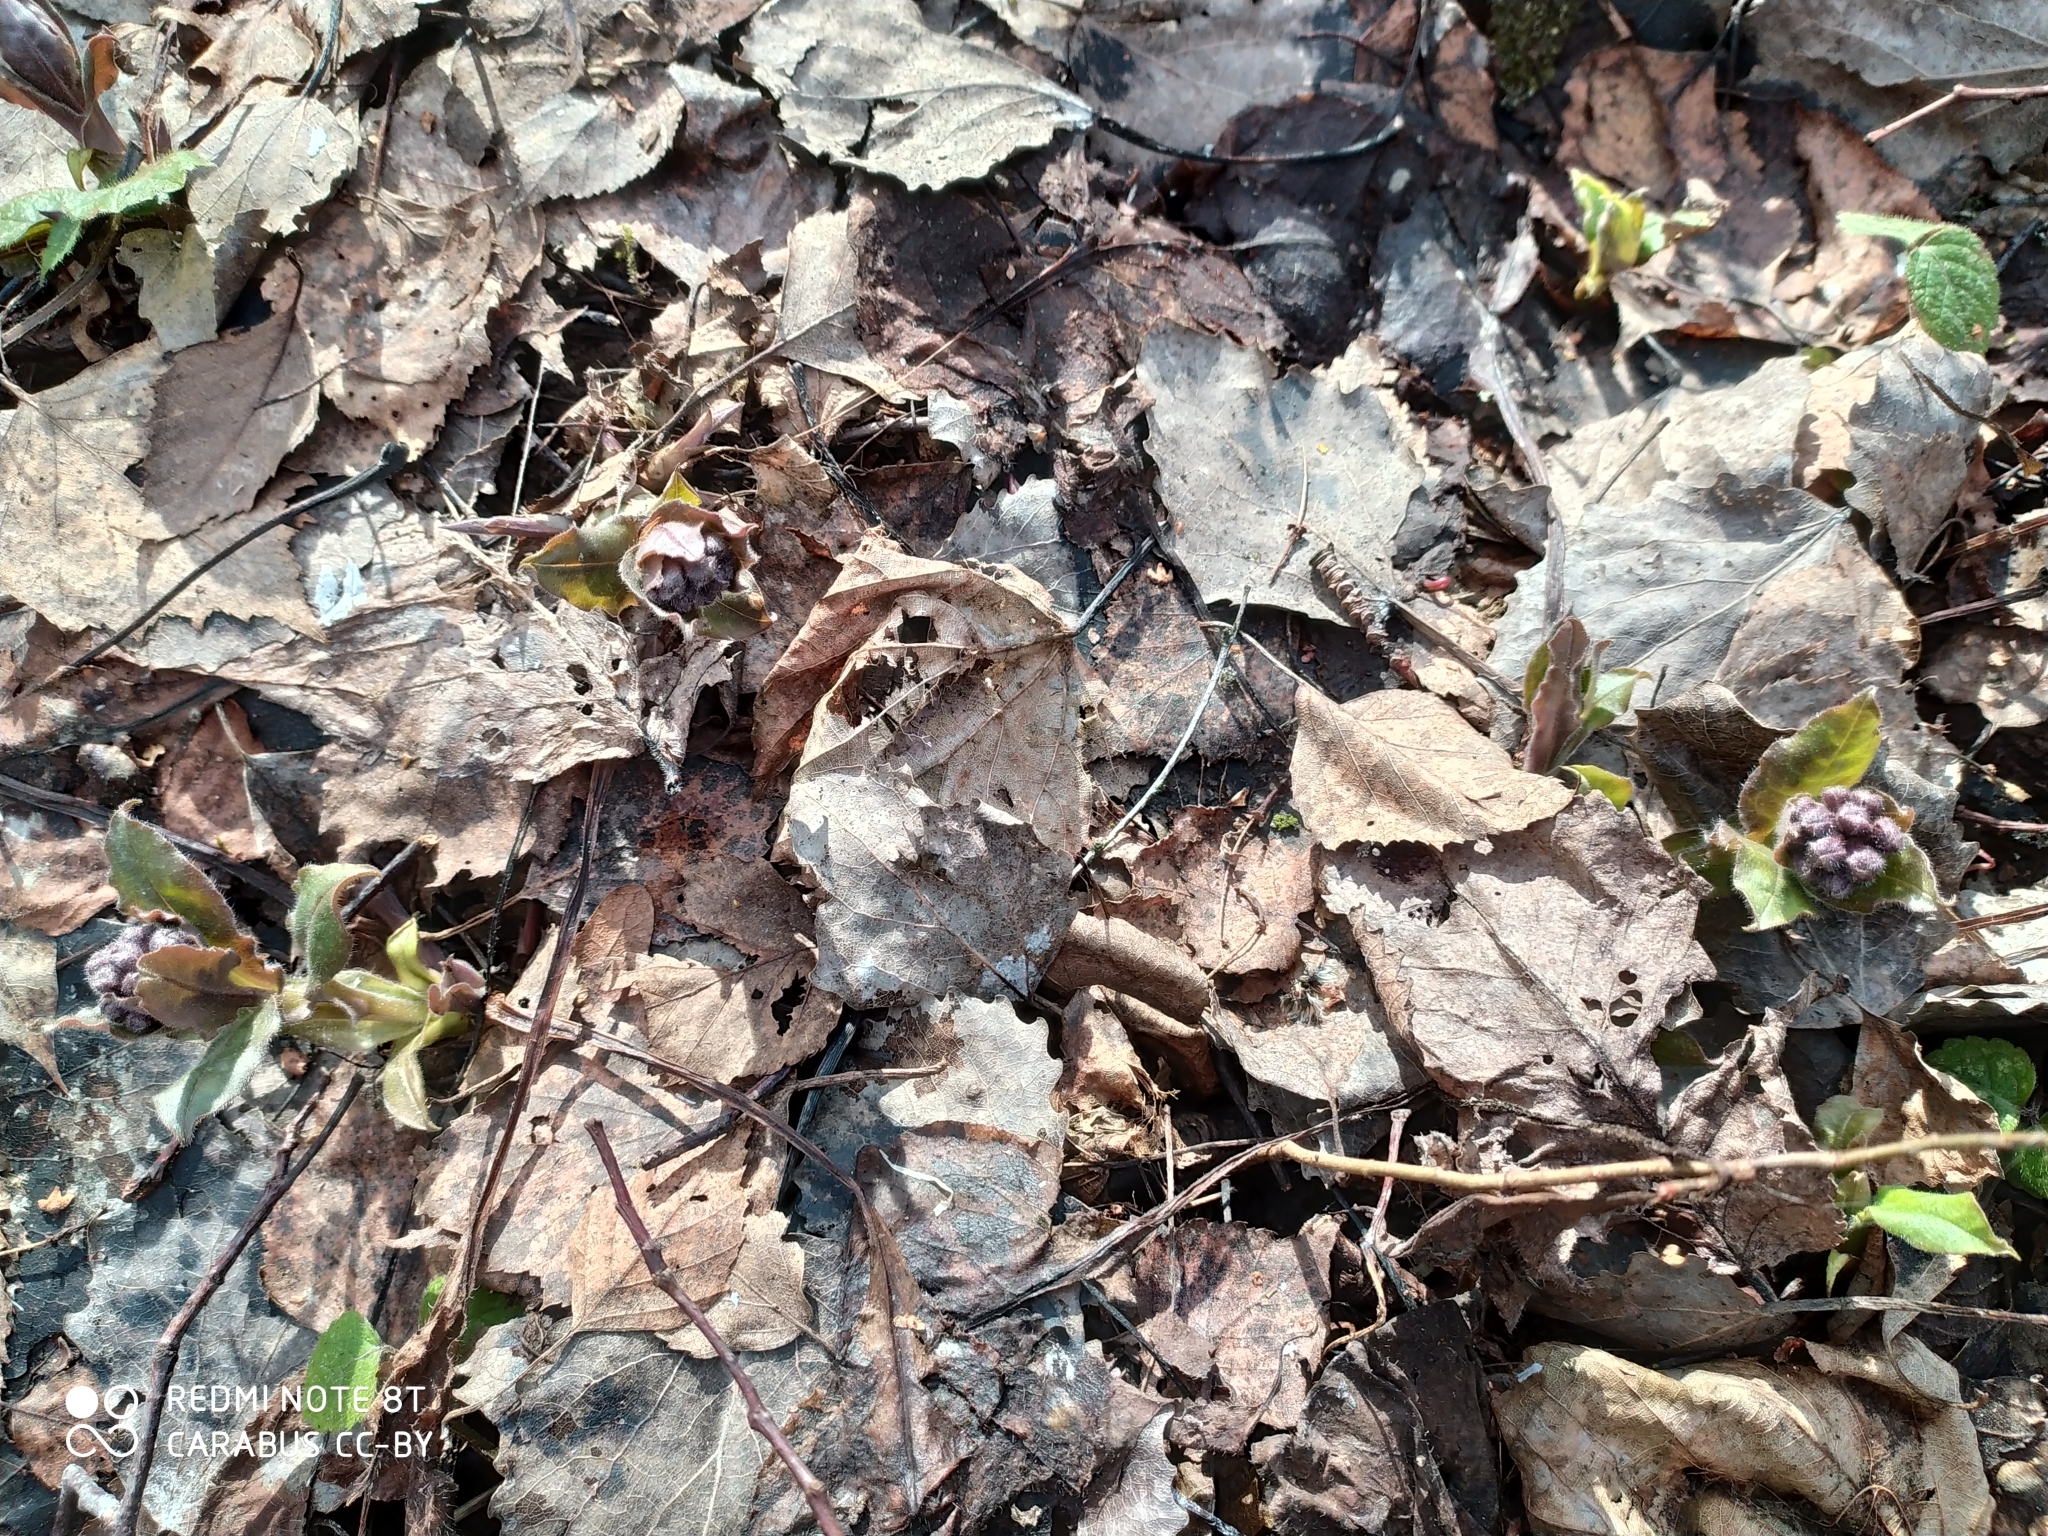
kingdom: Plantae
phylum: Tracheophyta
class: Magnoliopsida
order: Boraginales
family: Boraginaceae
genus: Pulmonaria
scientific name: Pulmonaria obscura
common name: Suffolk lungwort
